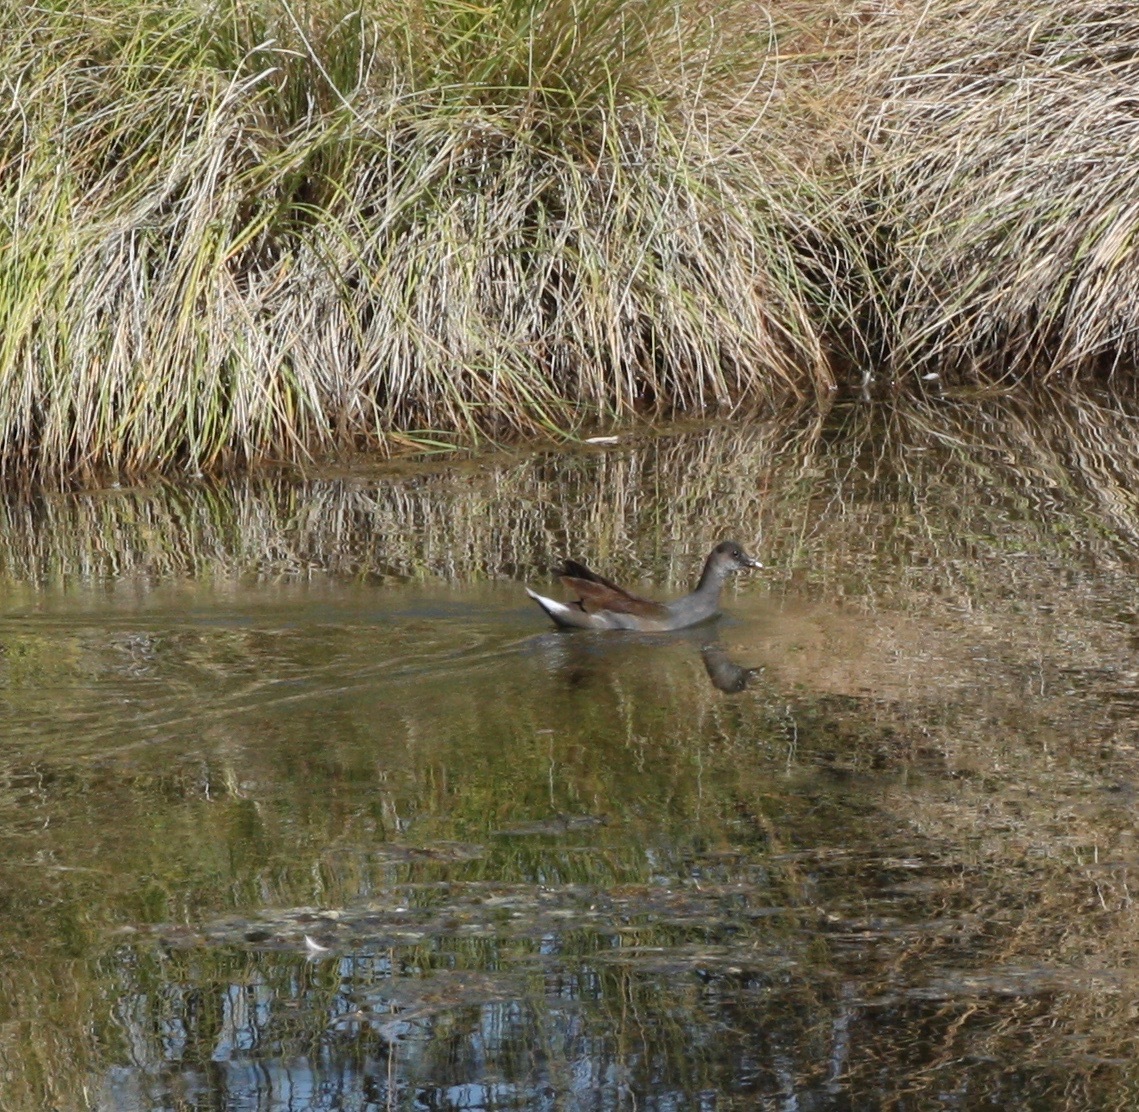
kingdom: Animalia
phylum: Chordata
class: Aves
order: Gruiformes
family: Rallidae
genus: Gallinula
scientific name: Gallinula chloropus
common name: Common moorhen
